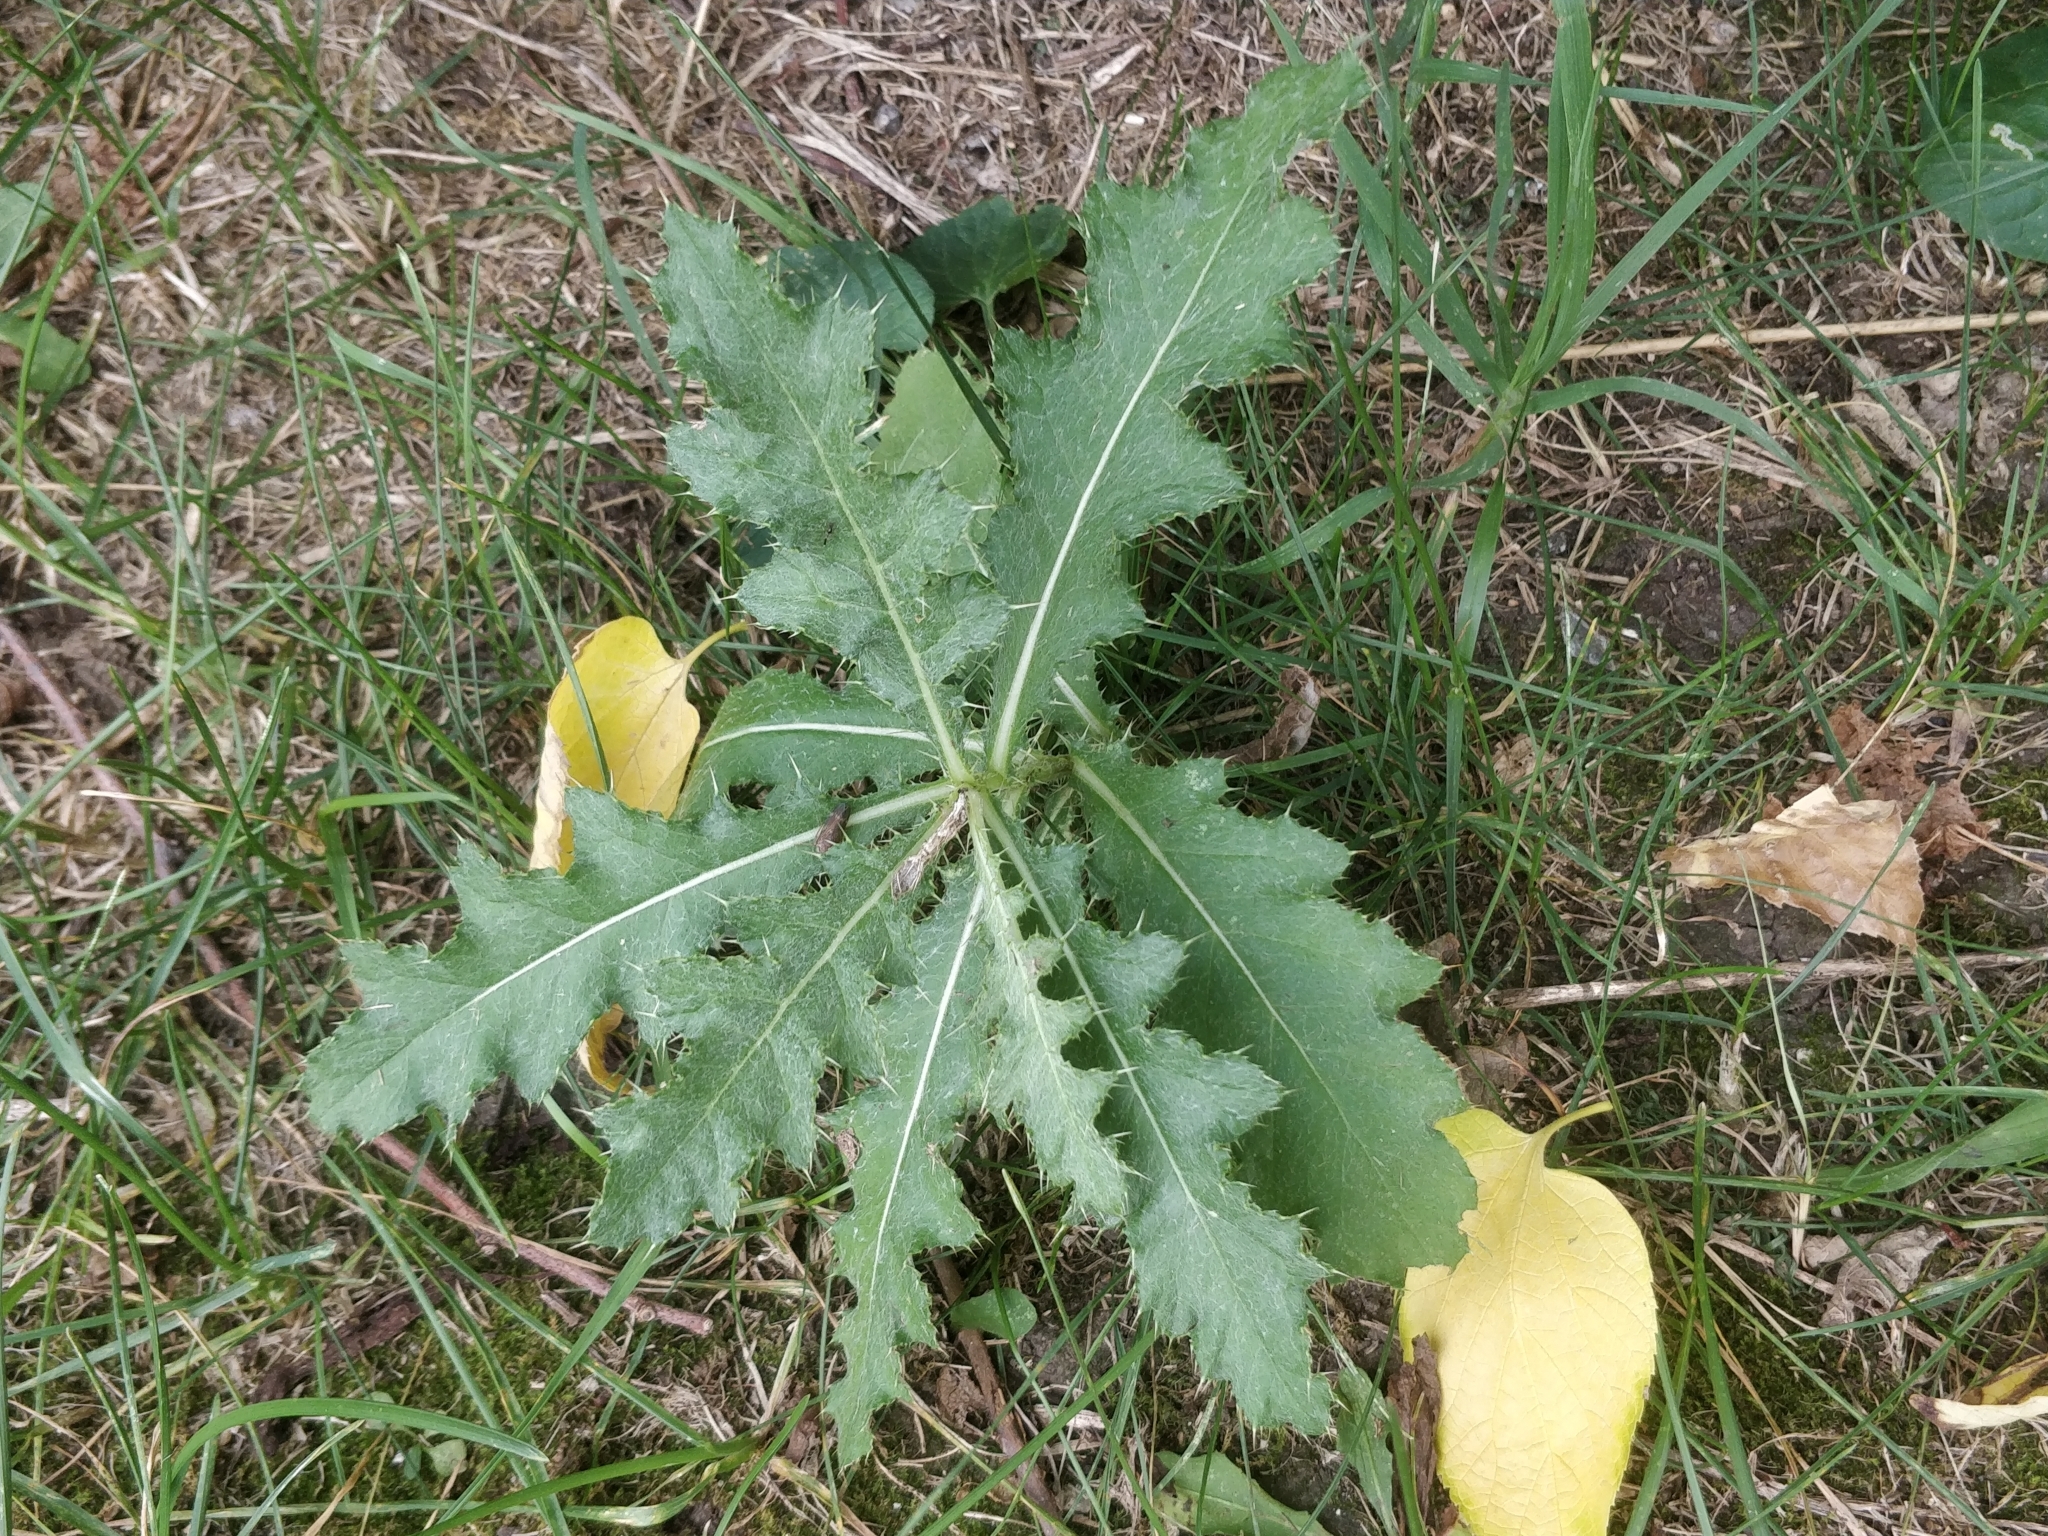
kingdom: Plantae
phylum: Tracheophyta
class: Magnoliopsida
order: Asterales
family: Asteraceae
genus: Cirsium
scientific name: Cirsium arvense
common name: Creeping thistle
